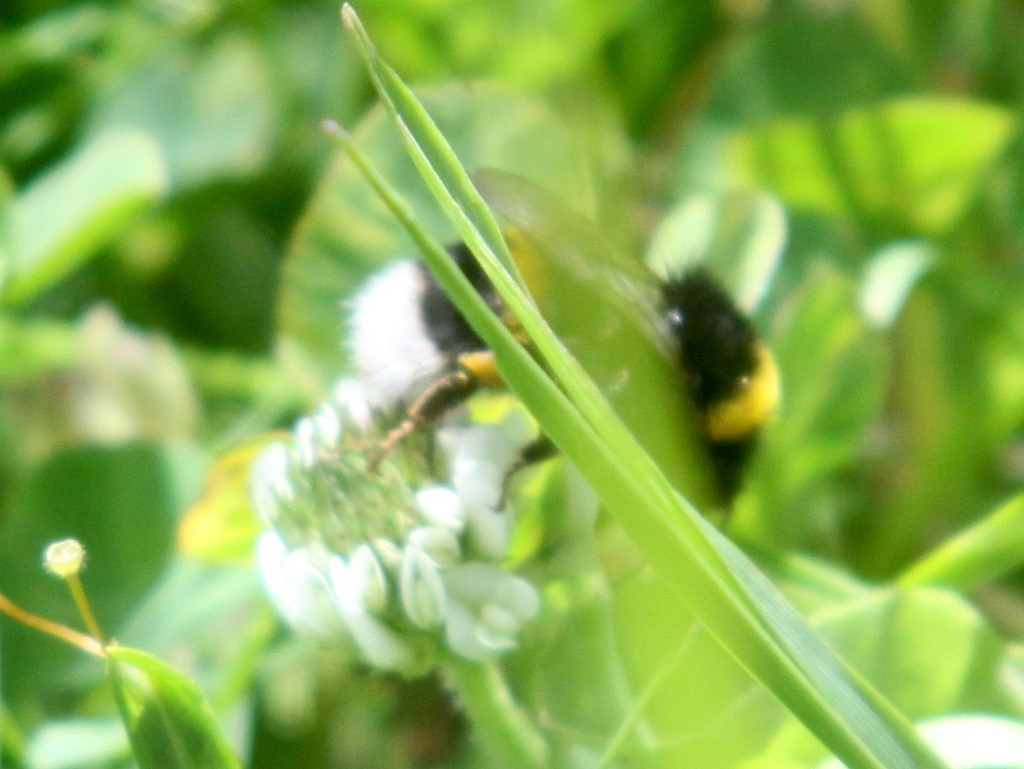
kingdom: Animalia
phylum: Arthropoda
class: Insecta
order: Hymenoptera
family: Apidae
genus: Bombus
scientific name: Bombus terrestris
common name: Buff-tailed bumblebee
